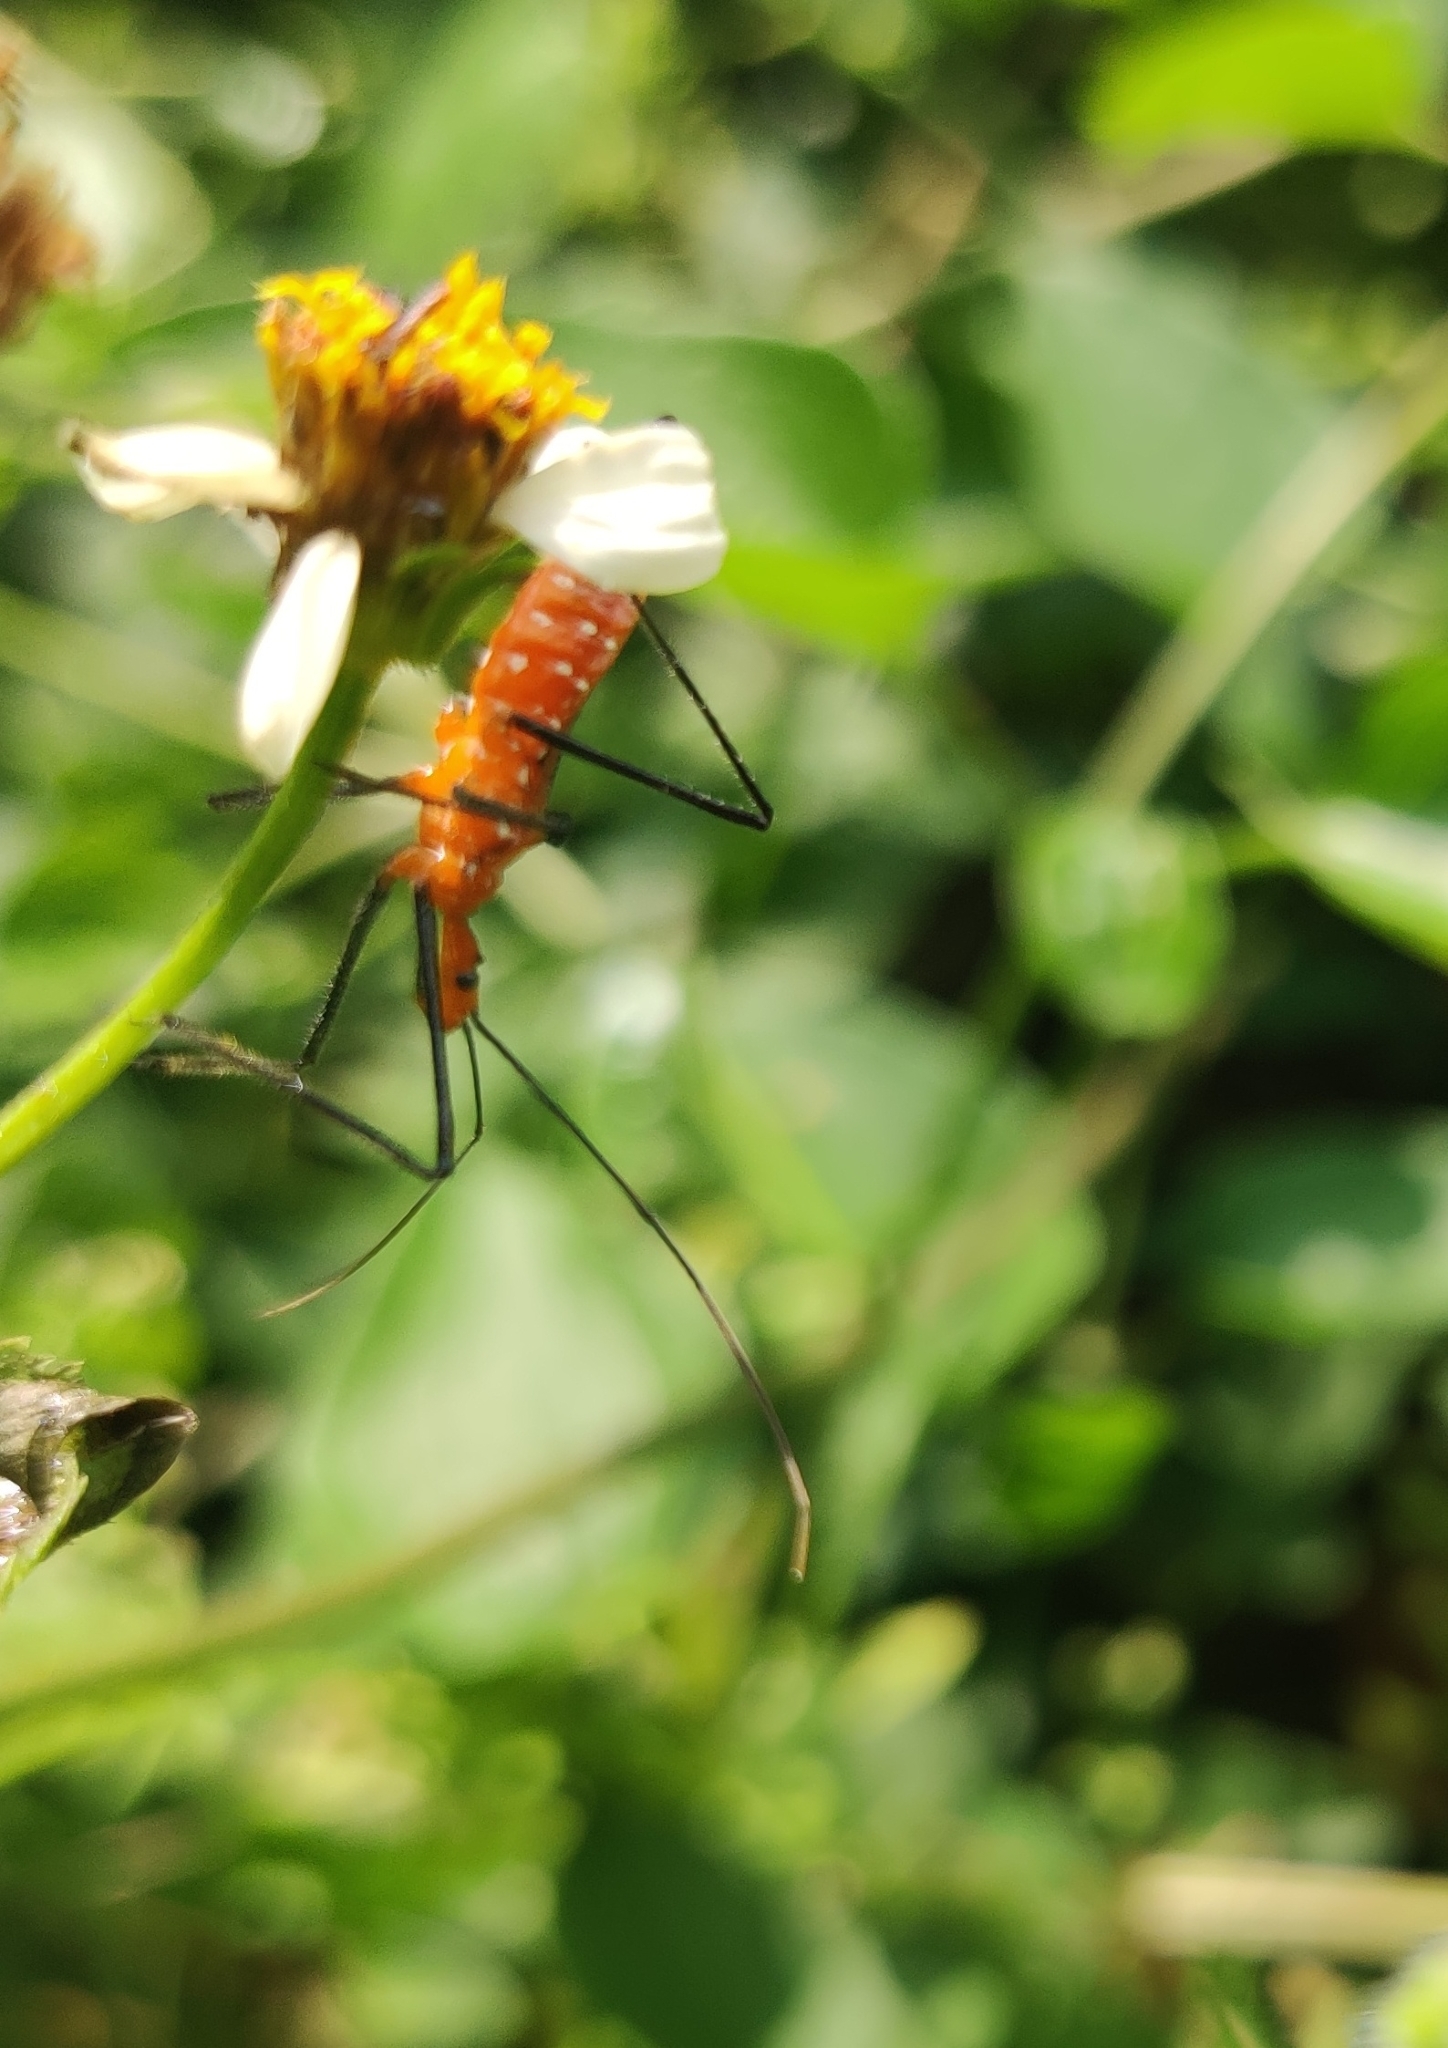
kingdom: Animalia
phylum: Arthropoda
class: Insecta
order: Hemiptera
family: Reduviidae
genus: Zelus
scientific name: Zelus longipes
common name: Milkweed assassin bug
